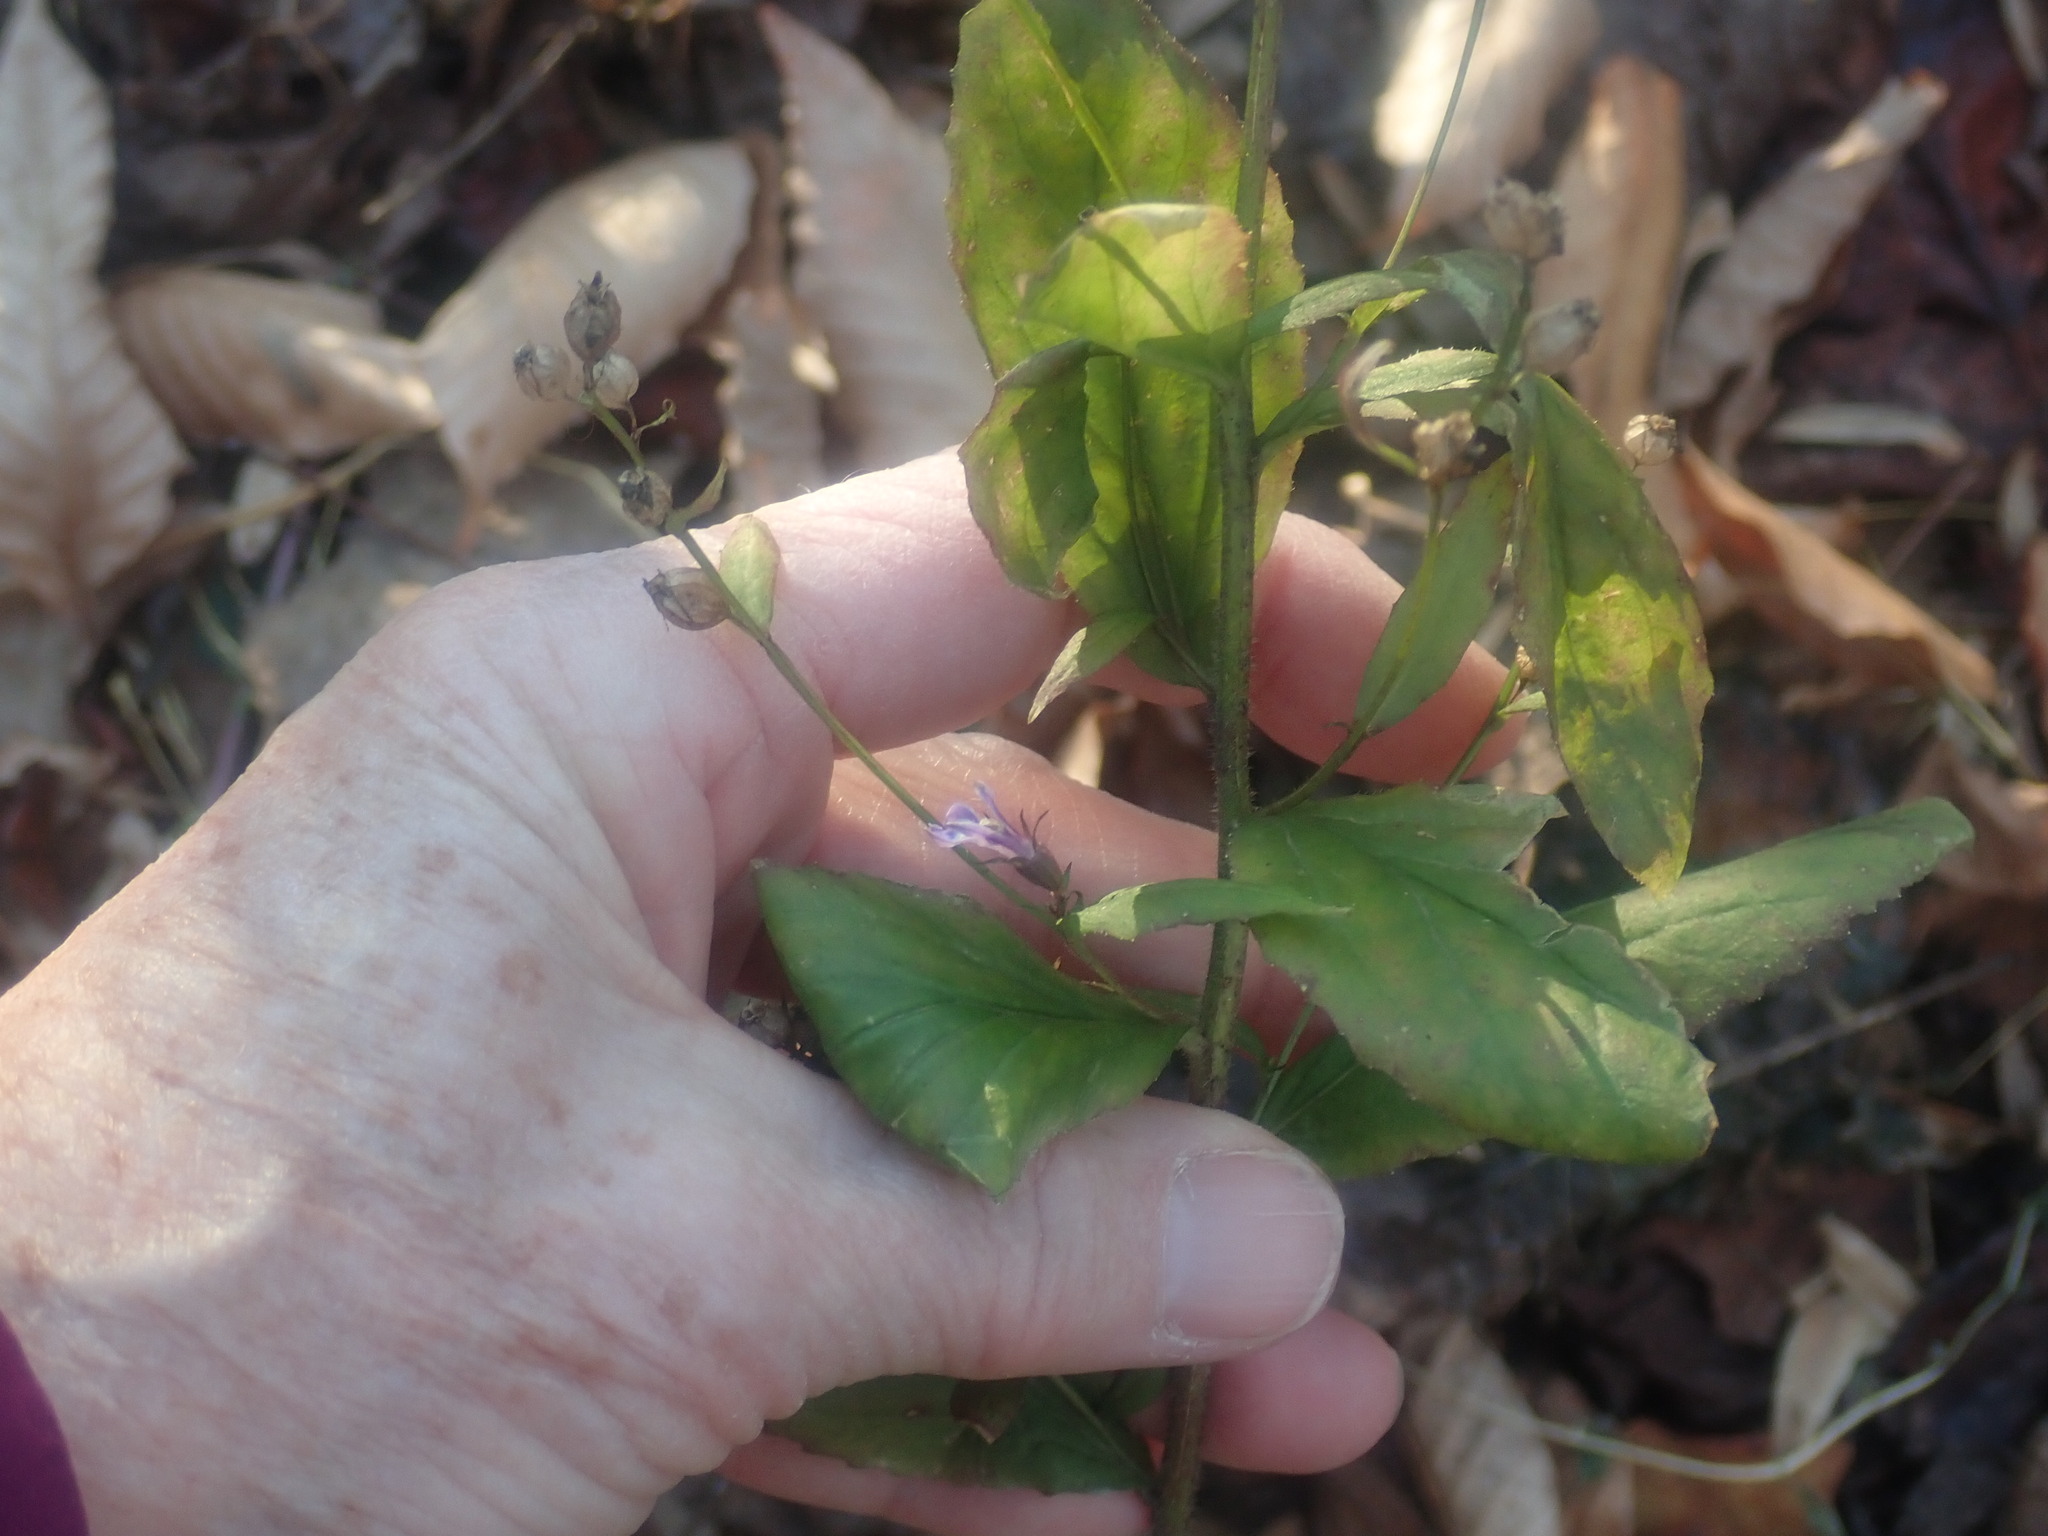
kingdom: Plantae
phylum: Tracheophyta
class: Magnoliopsida
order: Asterales
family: Campanulaceae
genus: Lobelia
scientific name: Lobelia inflata
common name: Indian tobacco
